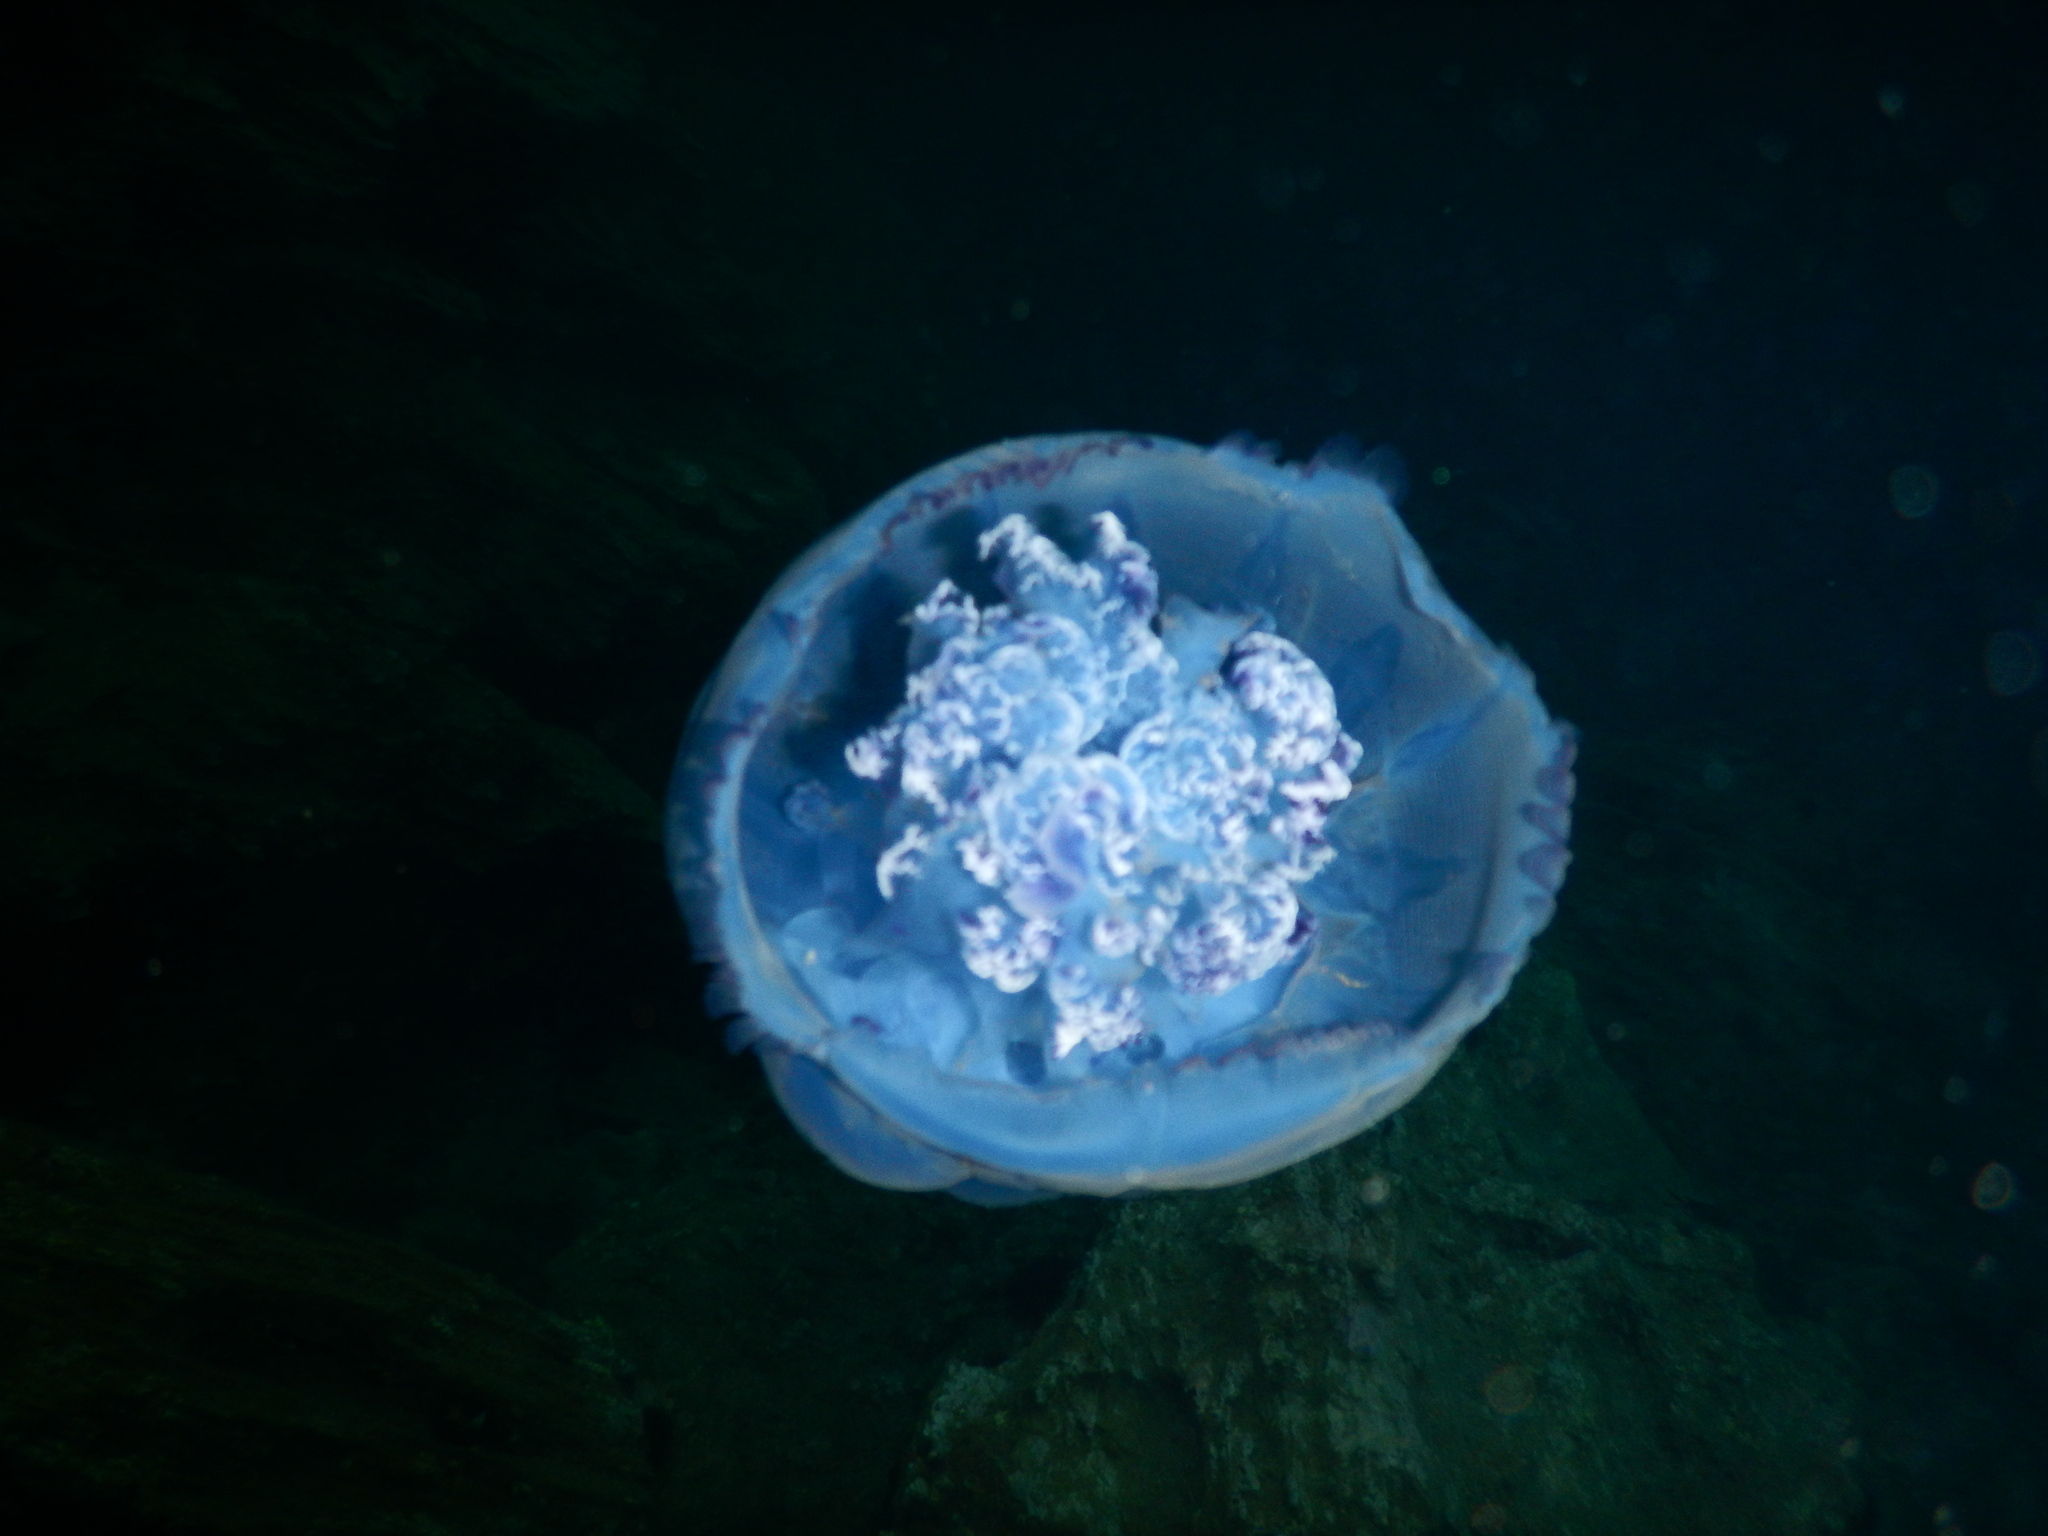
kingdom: Animalia
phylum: Cnidaria
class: Scyphozoa
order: Rhizostomeae
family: Rhizostomatidae
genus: Rhizostoma
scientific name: Rhizostoma pulmo
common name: Barrel jellyfish
